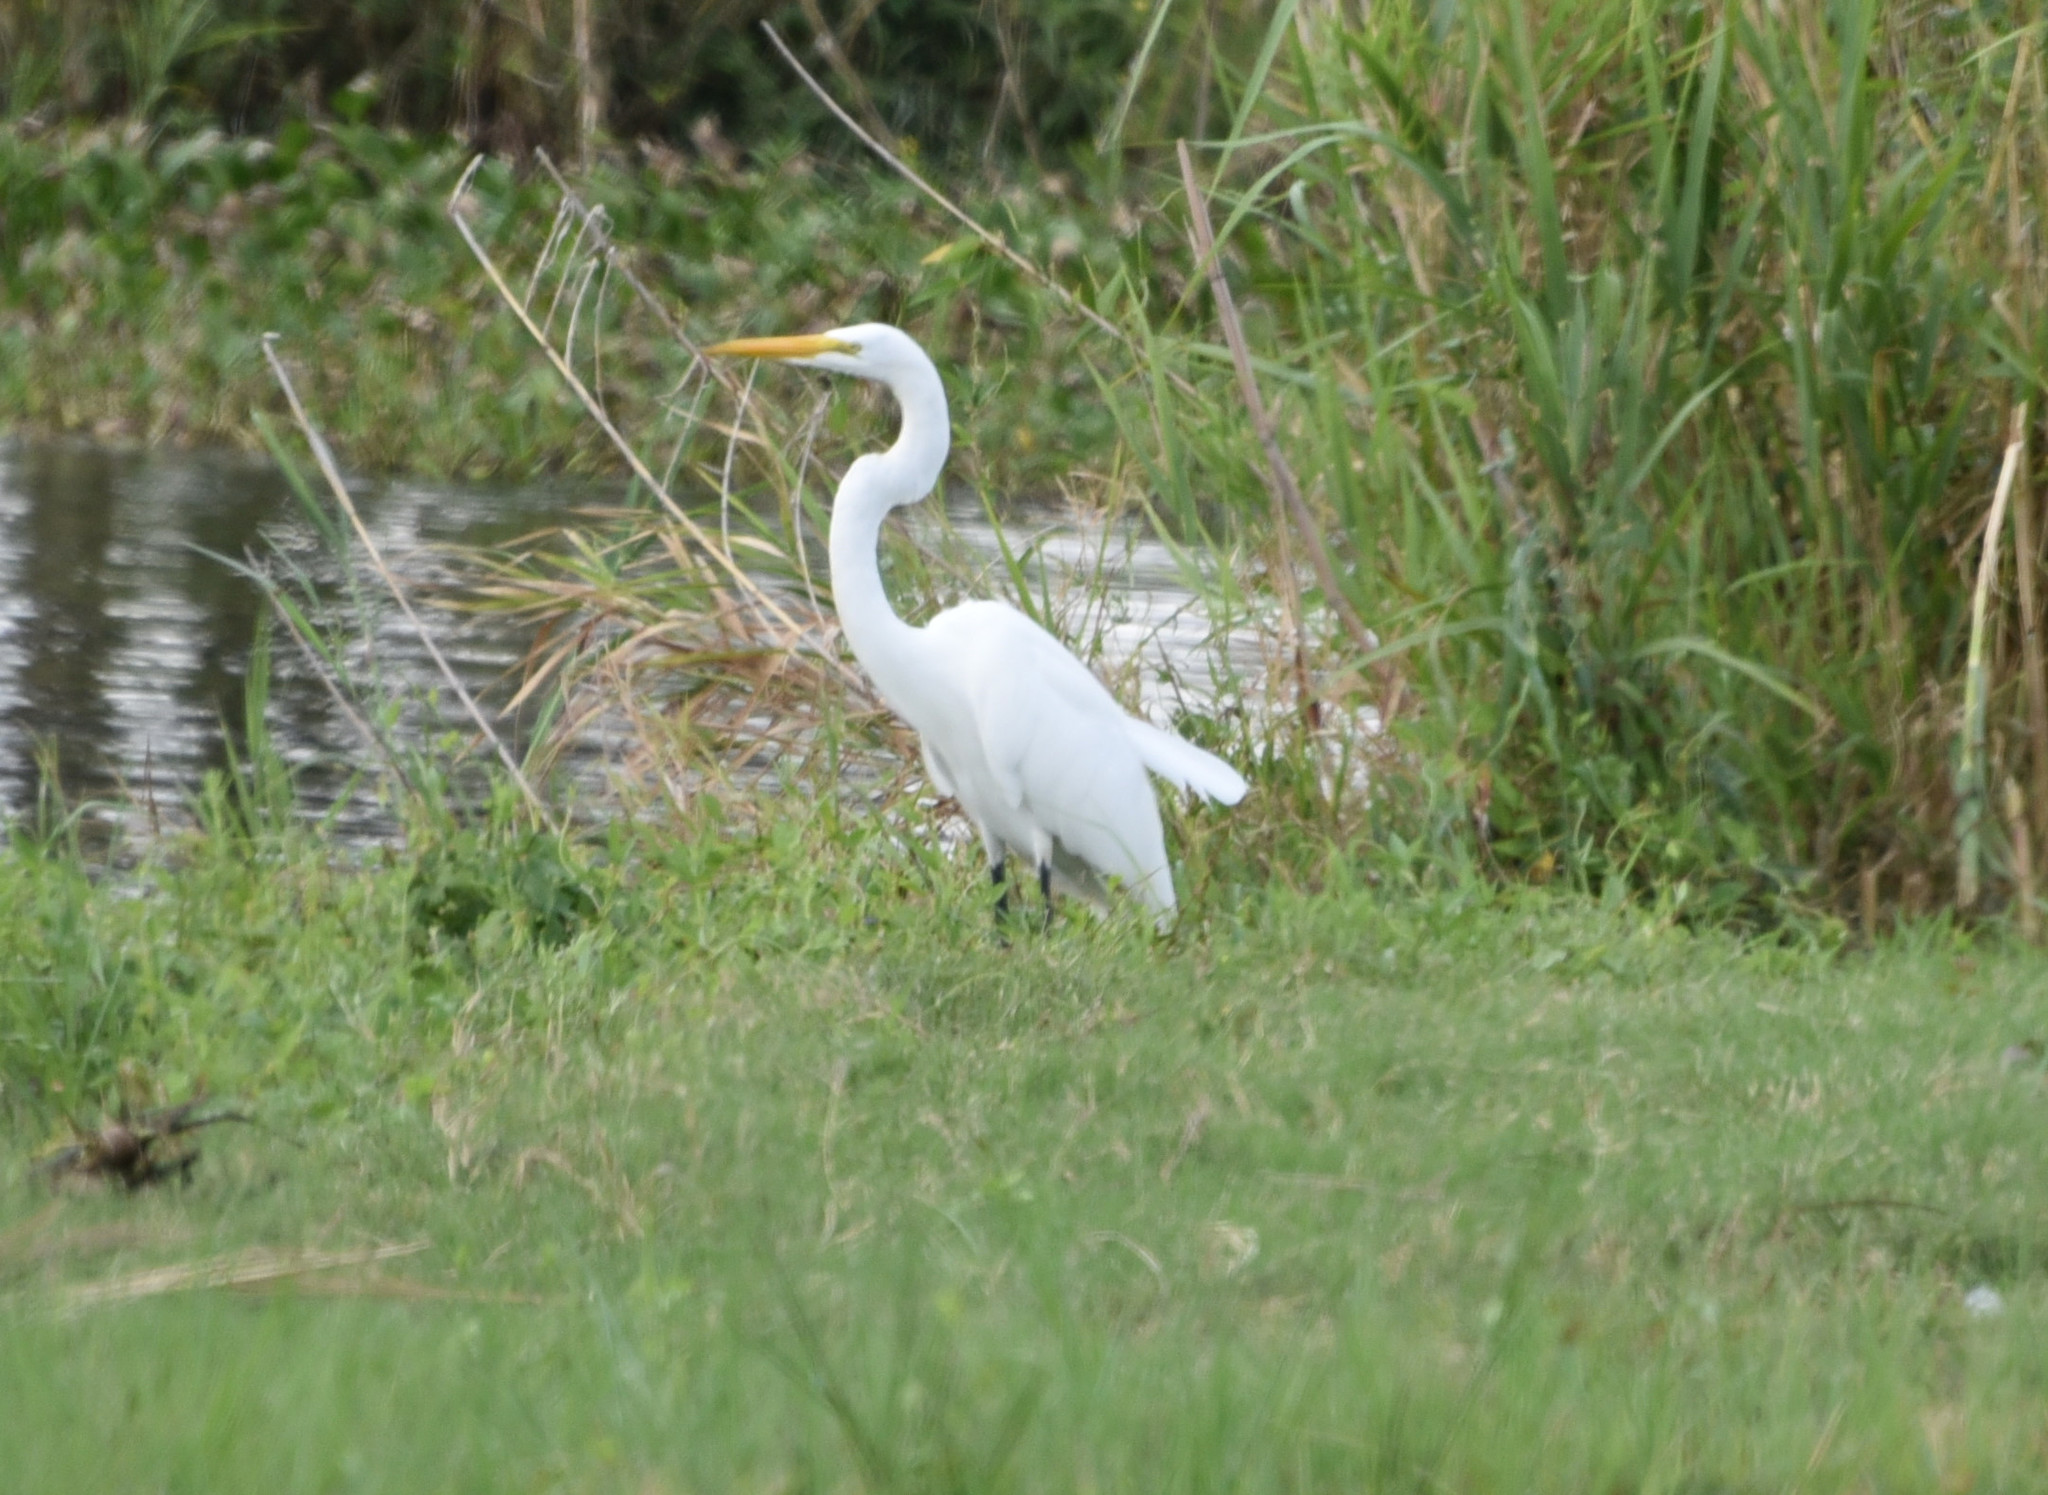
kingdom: Animalia
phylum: Chordata
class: Aves
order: Pelecaniformes
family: Ardeidae
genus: Ardea
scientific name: Ardea alba
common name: Great egret
